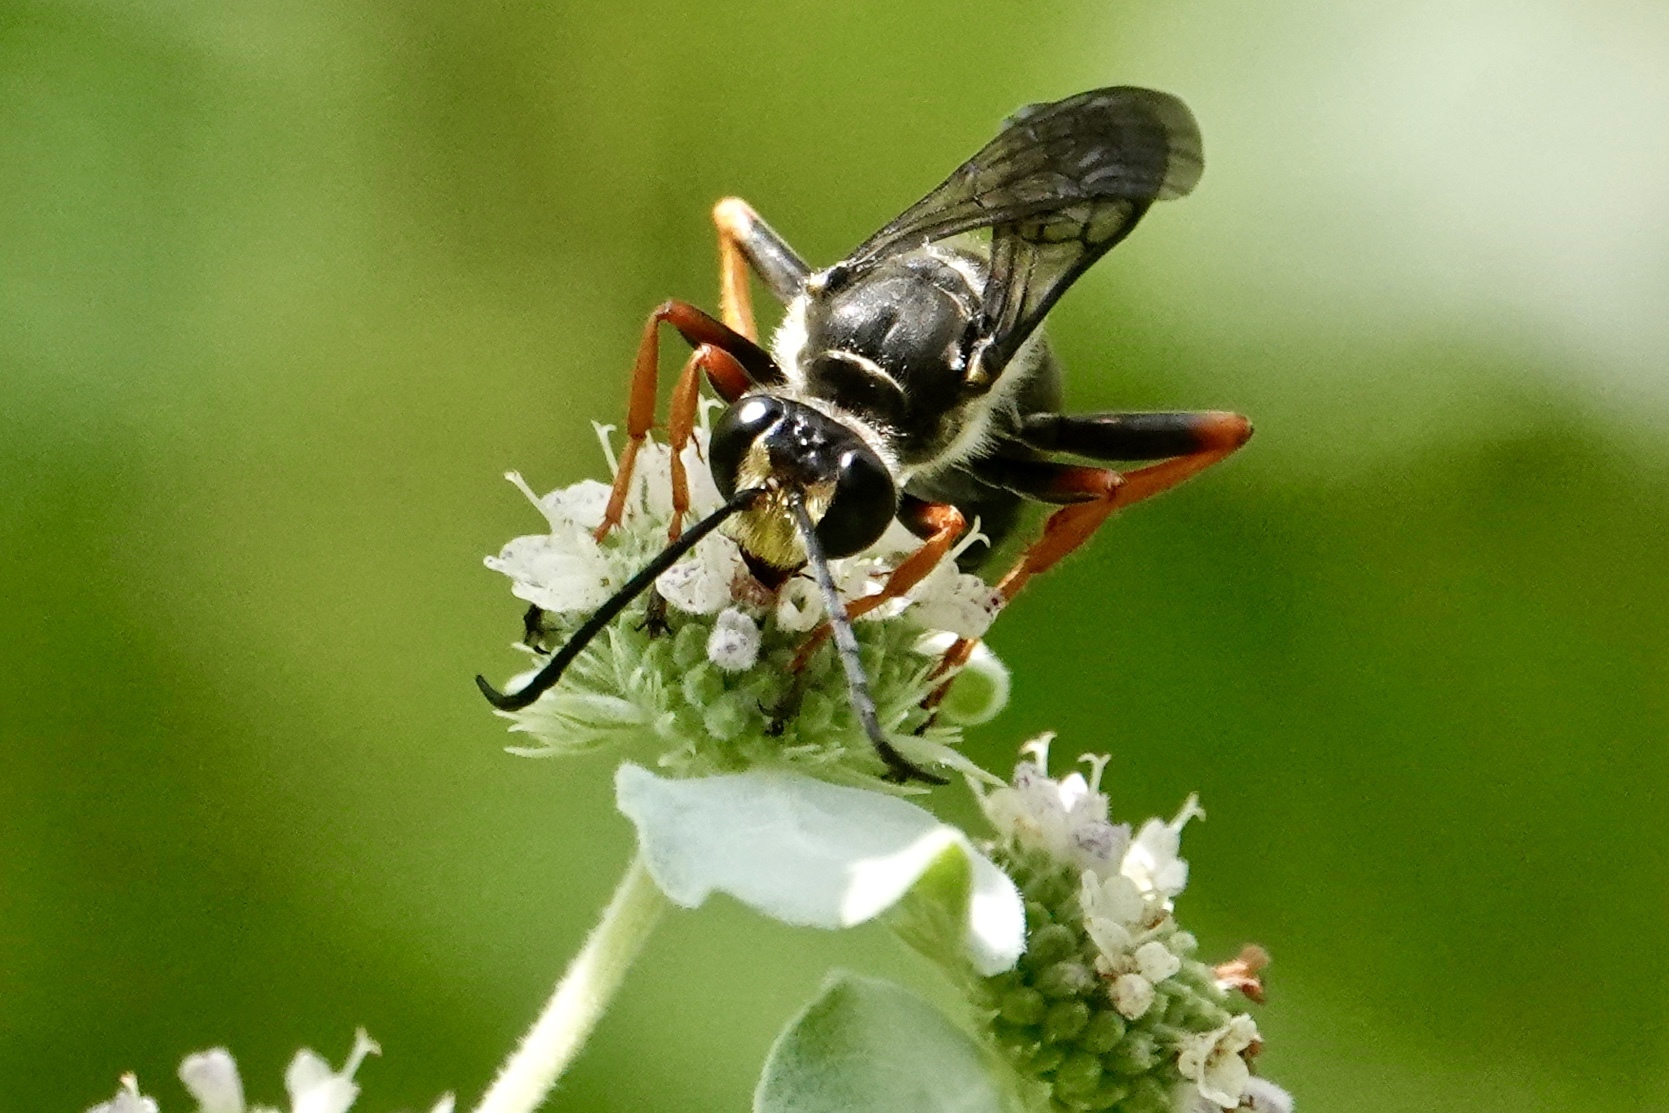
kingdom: Animalia
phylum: Arthropoda
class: Insecta
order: Hymenoptera
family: Sphecidae
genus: Sphex
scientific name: Sphex nudus
